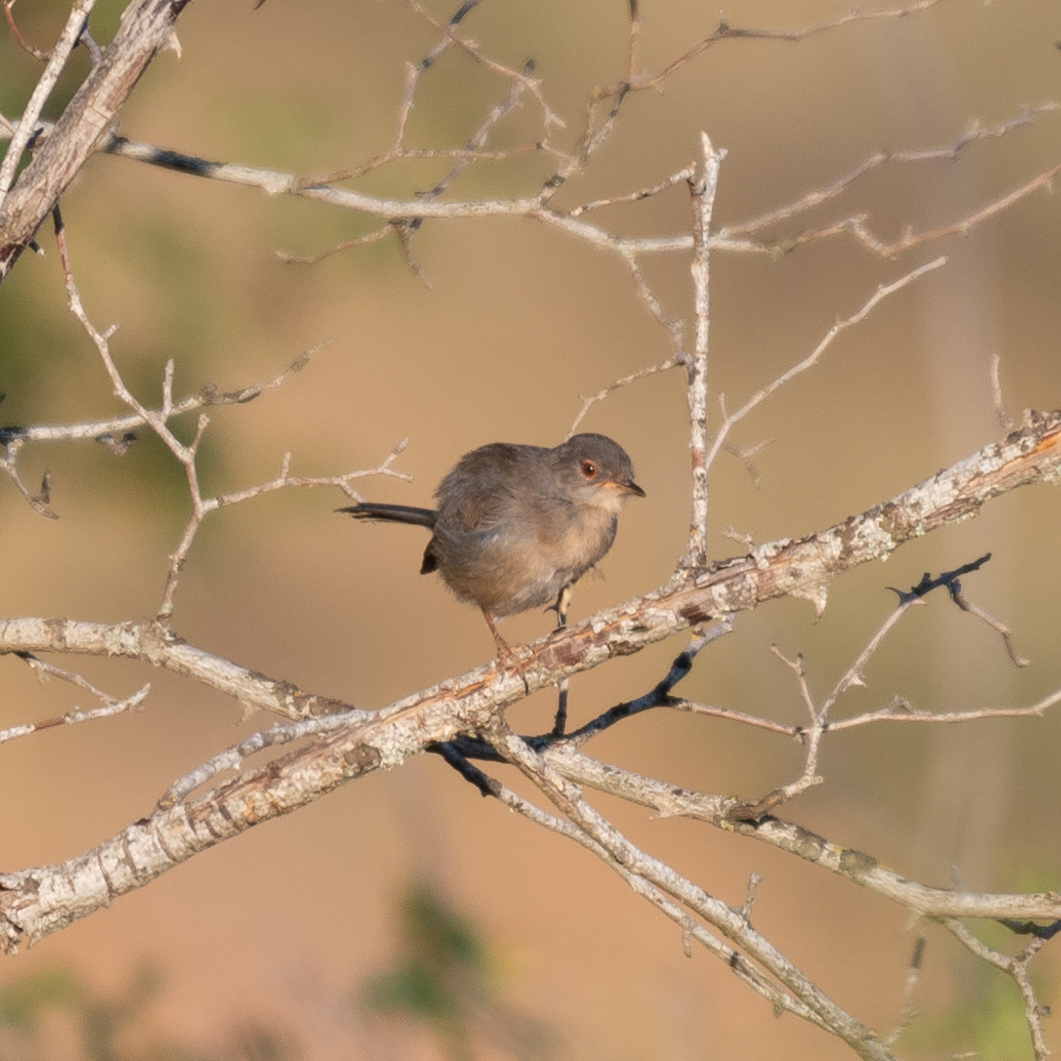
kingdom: Animalia
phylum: Chordata
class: Aves
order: Passeriformes
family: Sylviidae
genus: Sylvia
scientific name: Sylvia undata
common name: Dartford warbler
